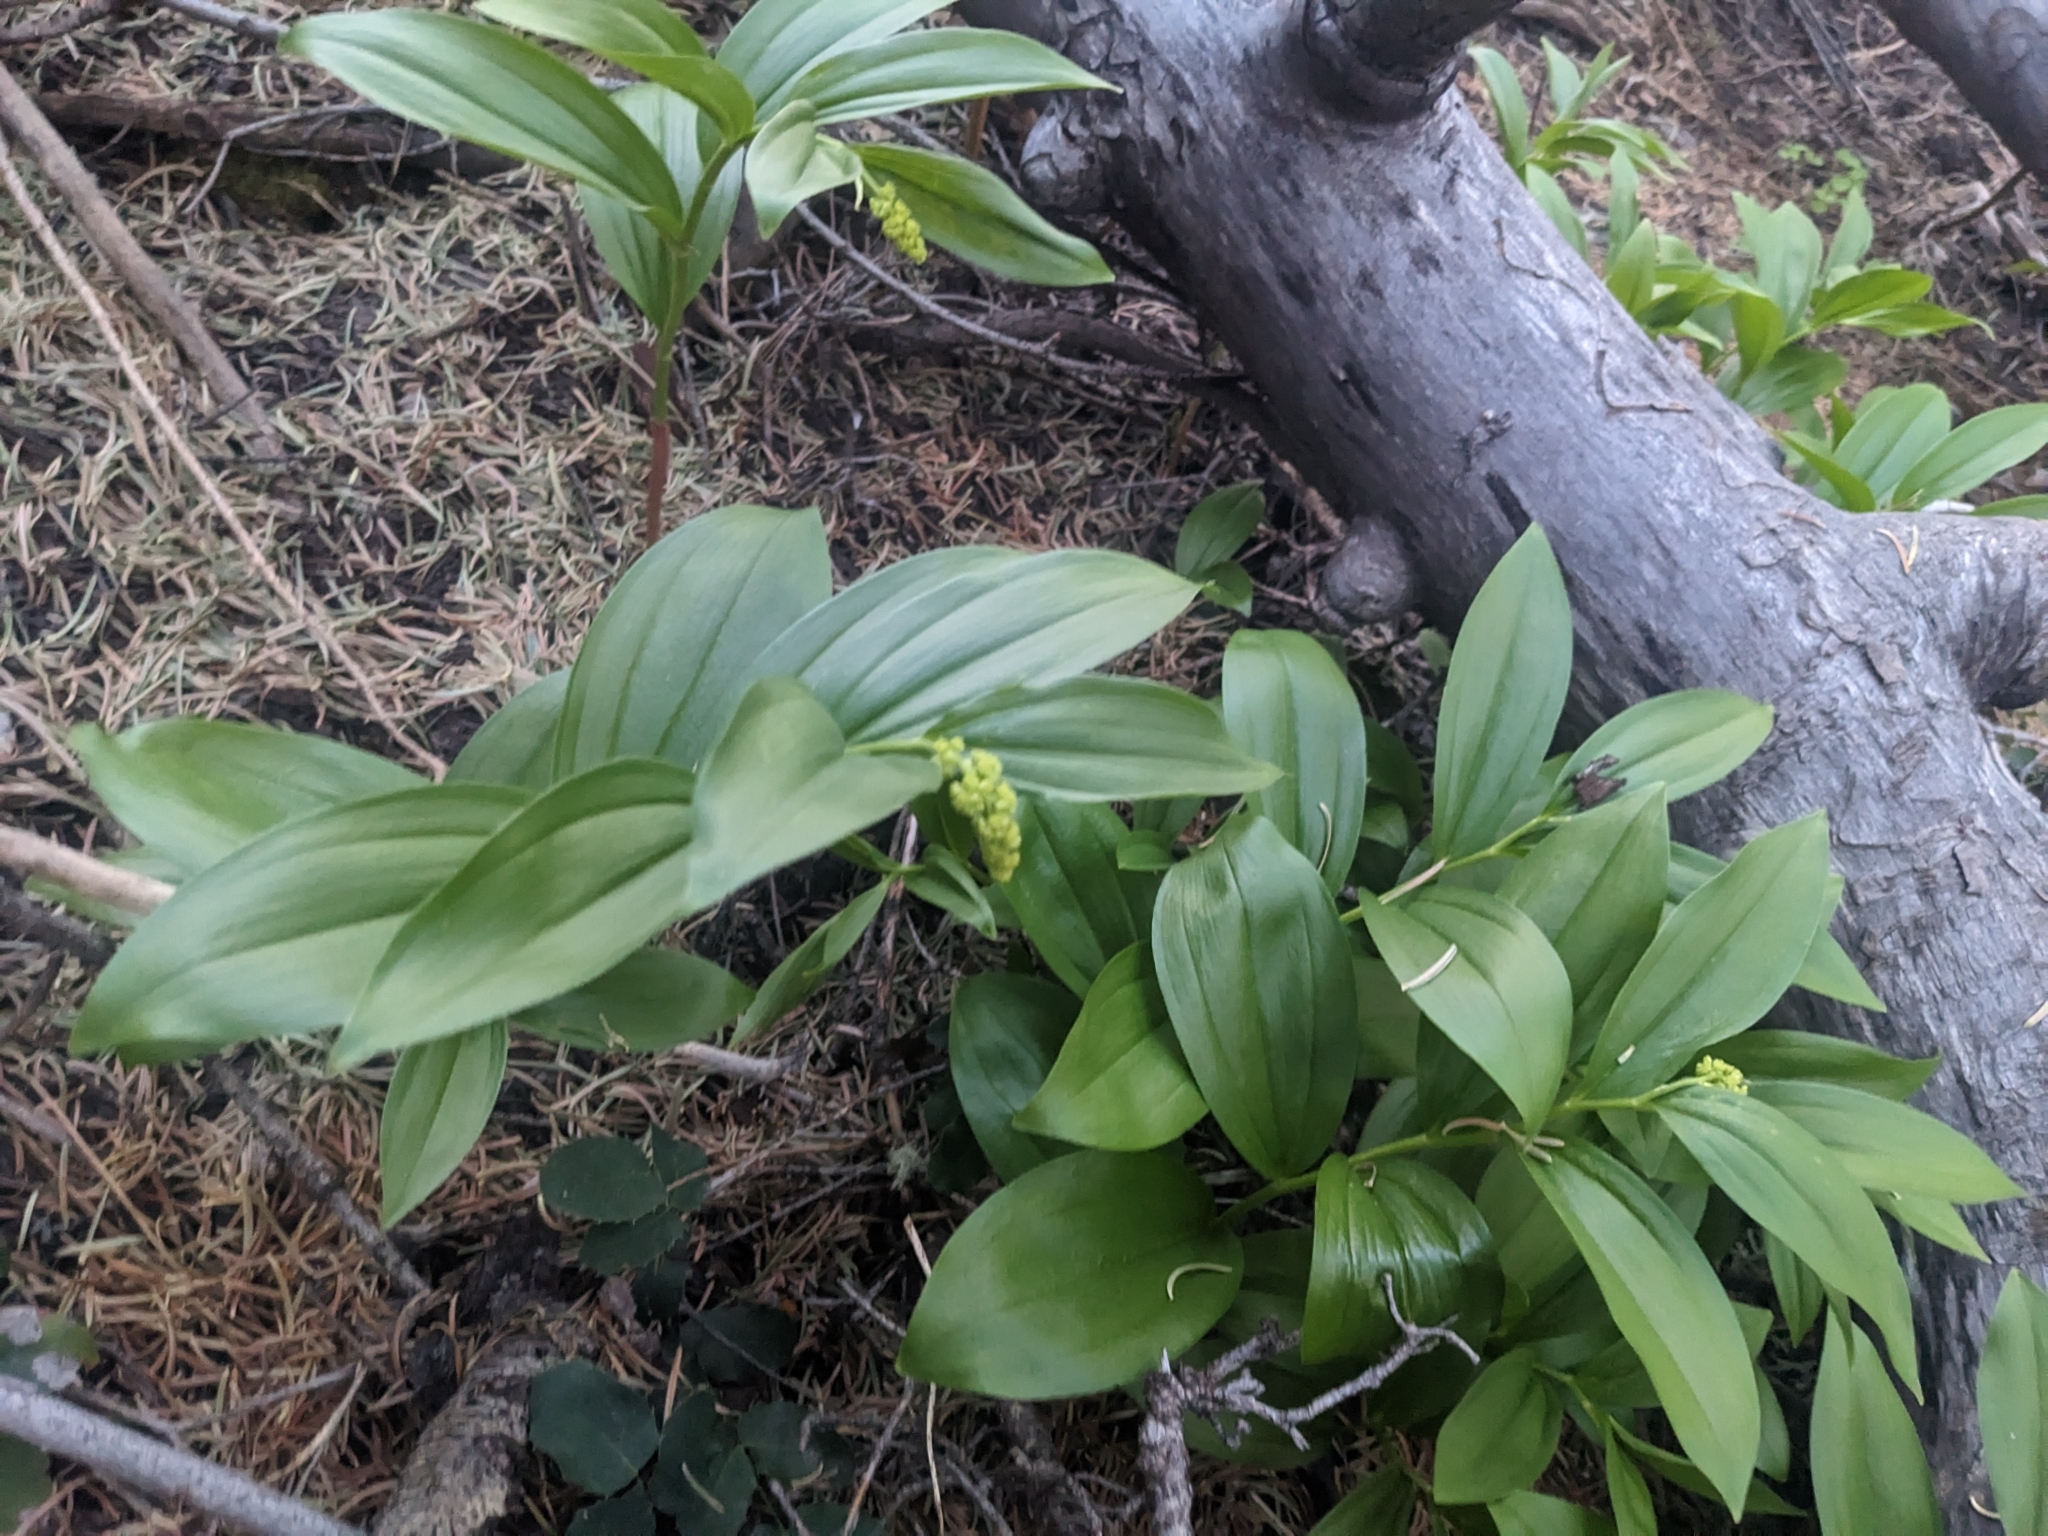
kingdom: Plantae
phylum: Tracheophyta
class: Liliopsida
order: Asparagales
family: Asparagaceae
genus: Maianthemum
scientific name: Maianthemum racemosum
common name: False spikenard
